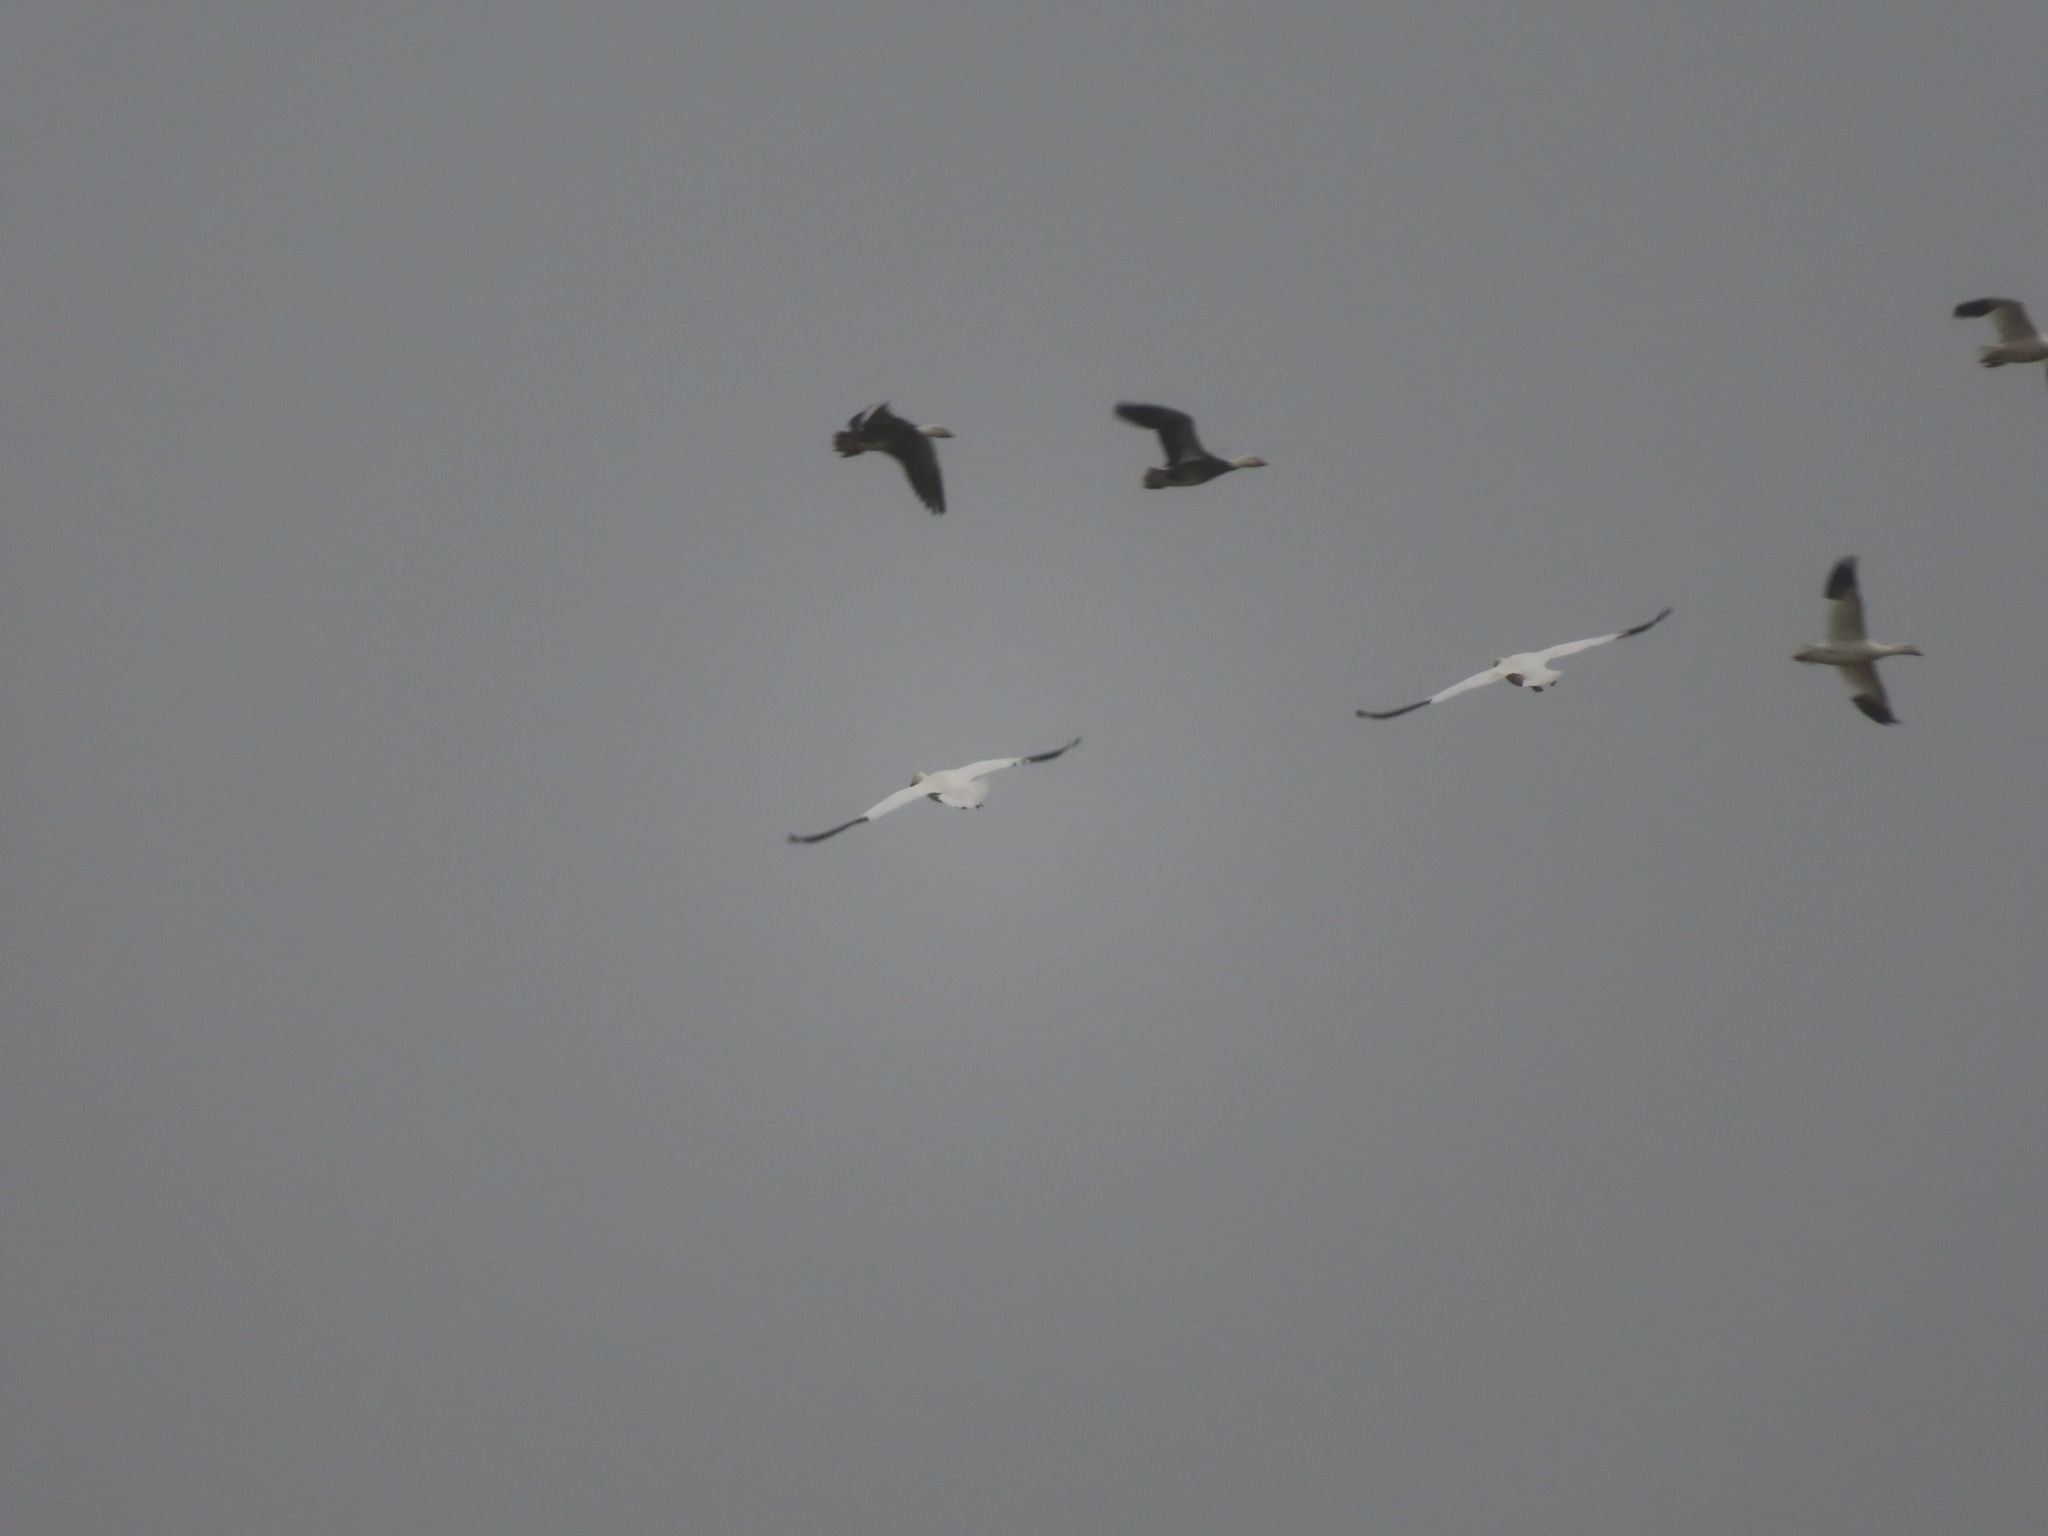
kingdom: Animalia
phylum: Chordata
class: Aves
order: Anseriformes
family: Anatidae
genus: Anser
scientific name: Anser caerulescens
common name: Snow goose
